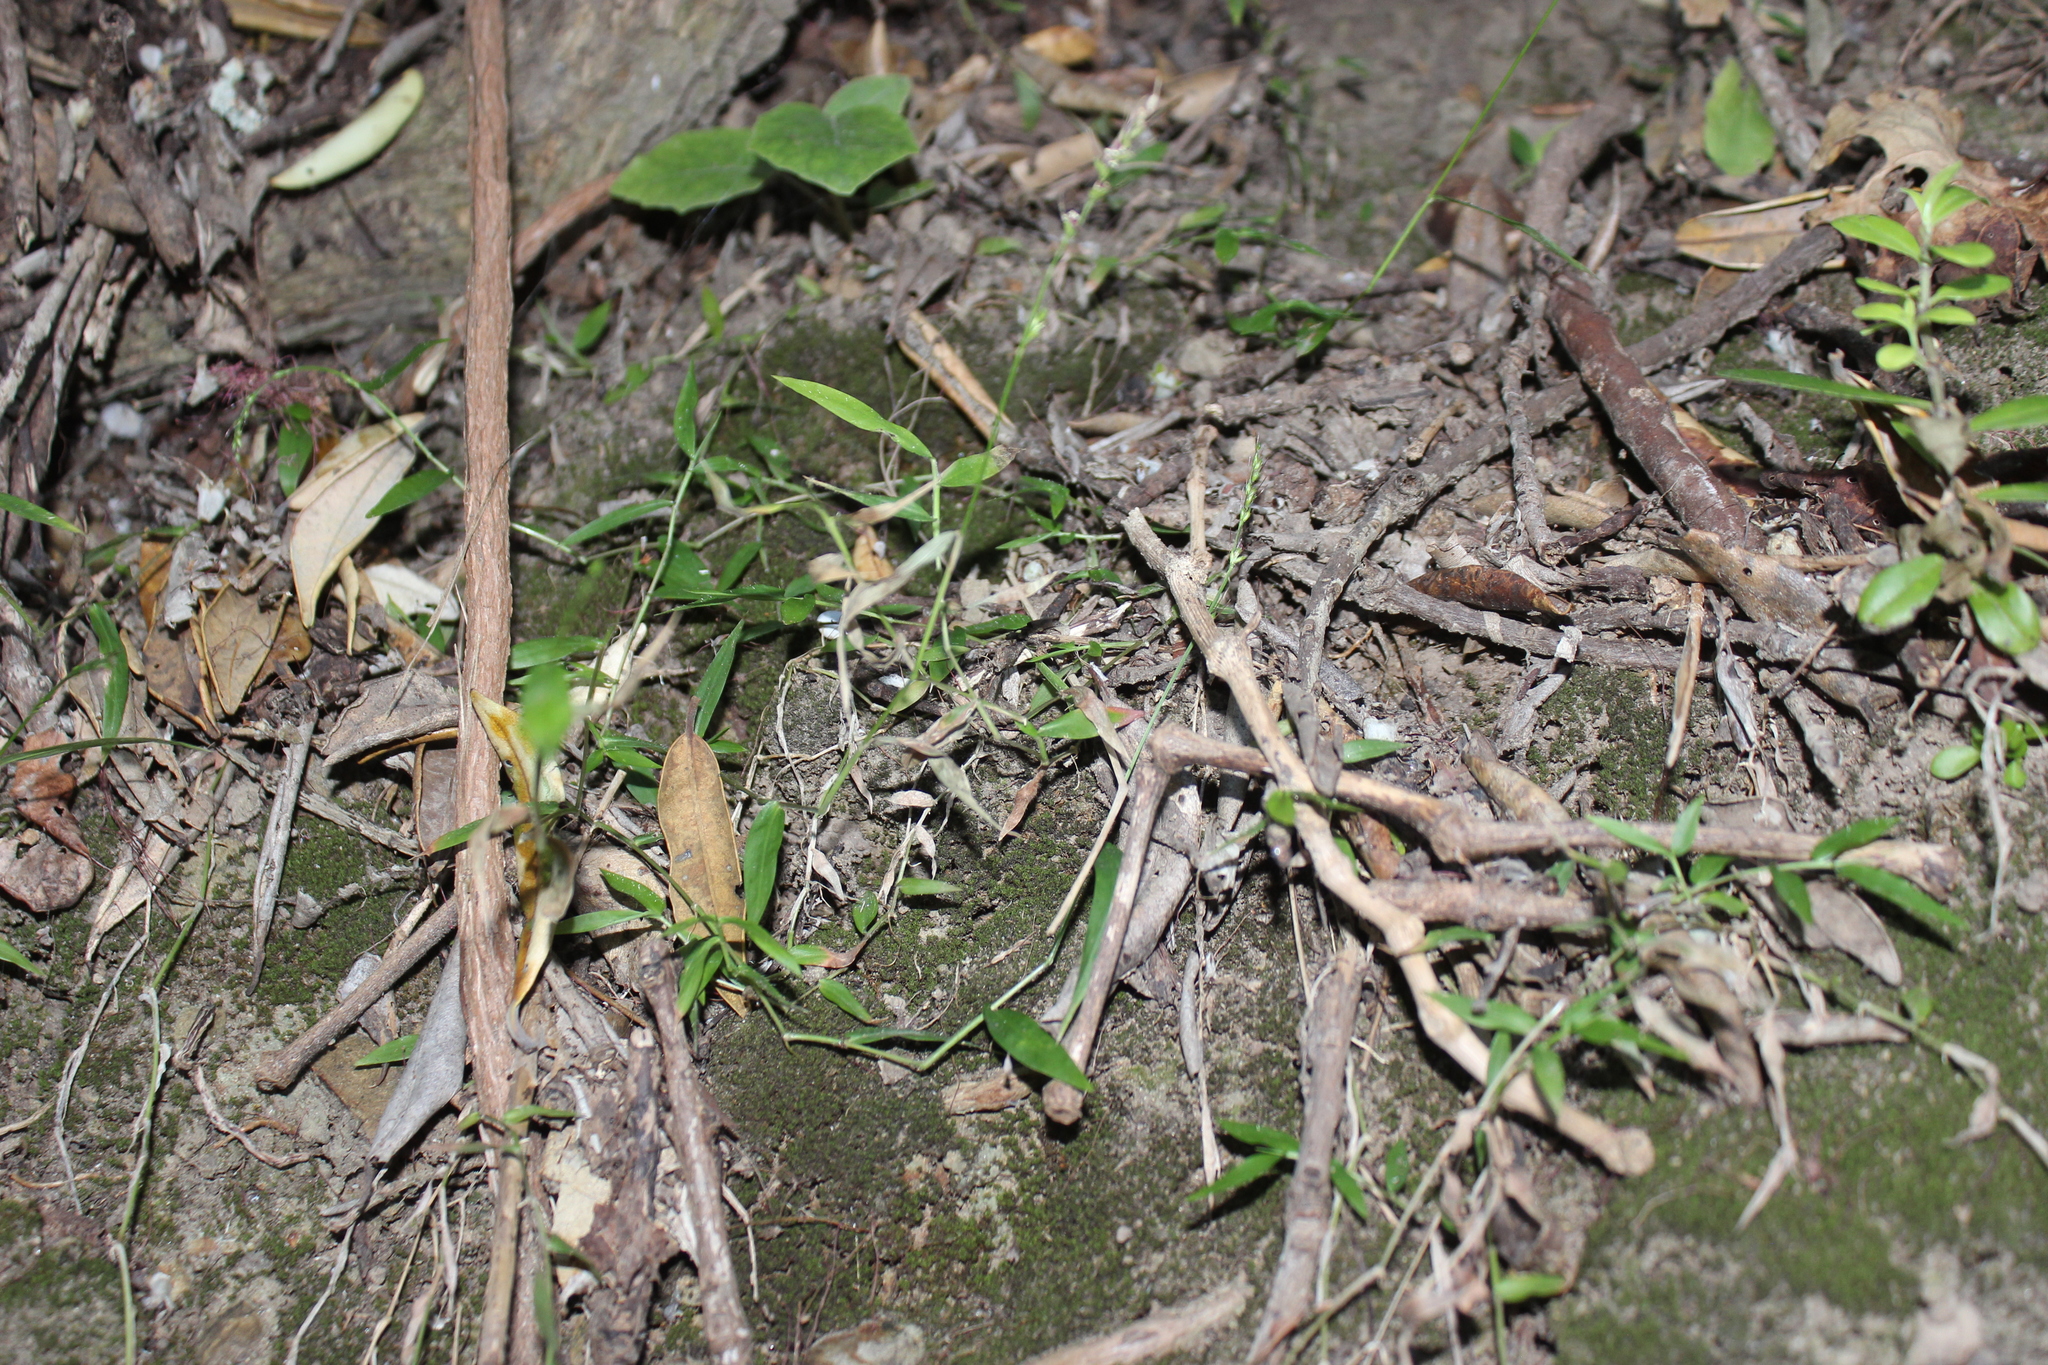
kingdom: Plantae
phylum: Tracheophyta
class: Liliopsida
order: Poales
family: Poaceae
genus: Oplismenus
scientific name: Oplismenus hirtellus
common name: Basketgrass
